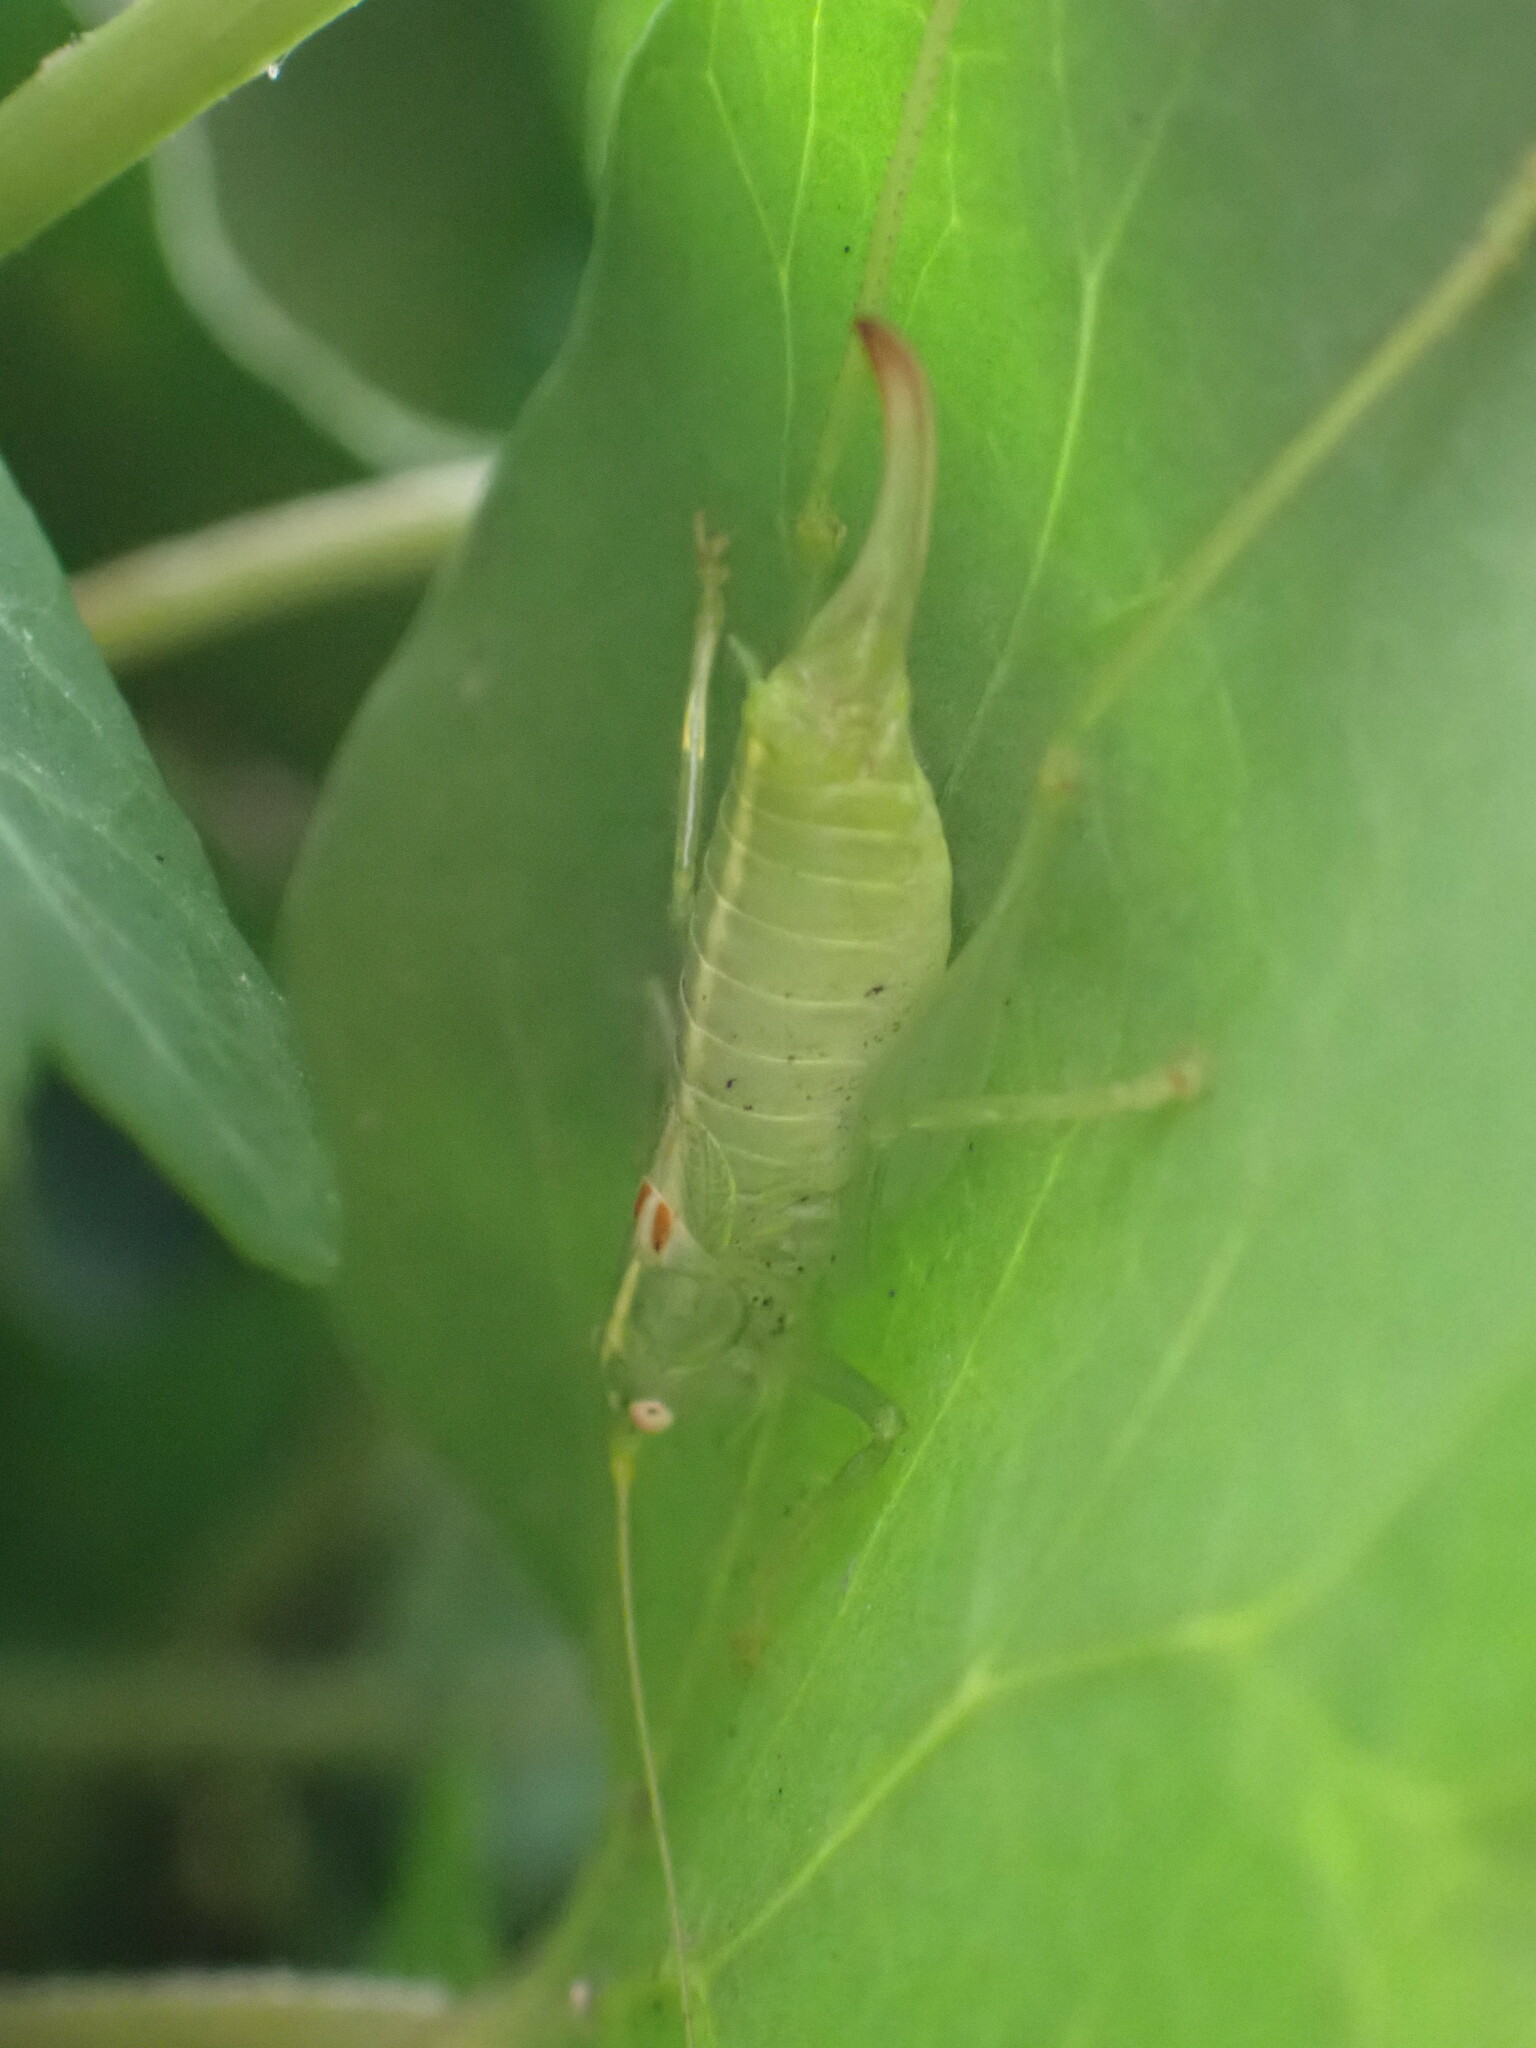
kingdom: Animalia
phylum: Arthropoda
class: Insecta
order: Orthoptera
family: Tettigoniidae
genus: Meconema
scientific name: Meconema meridionale
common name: Southern oak bush-cricket
